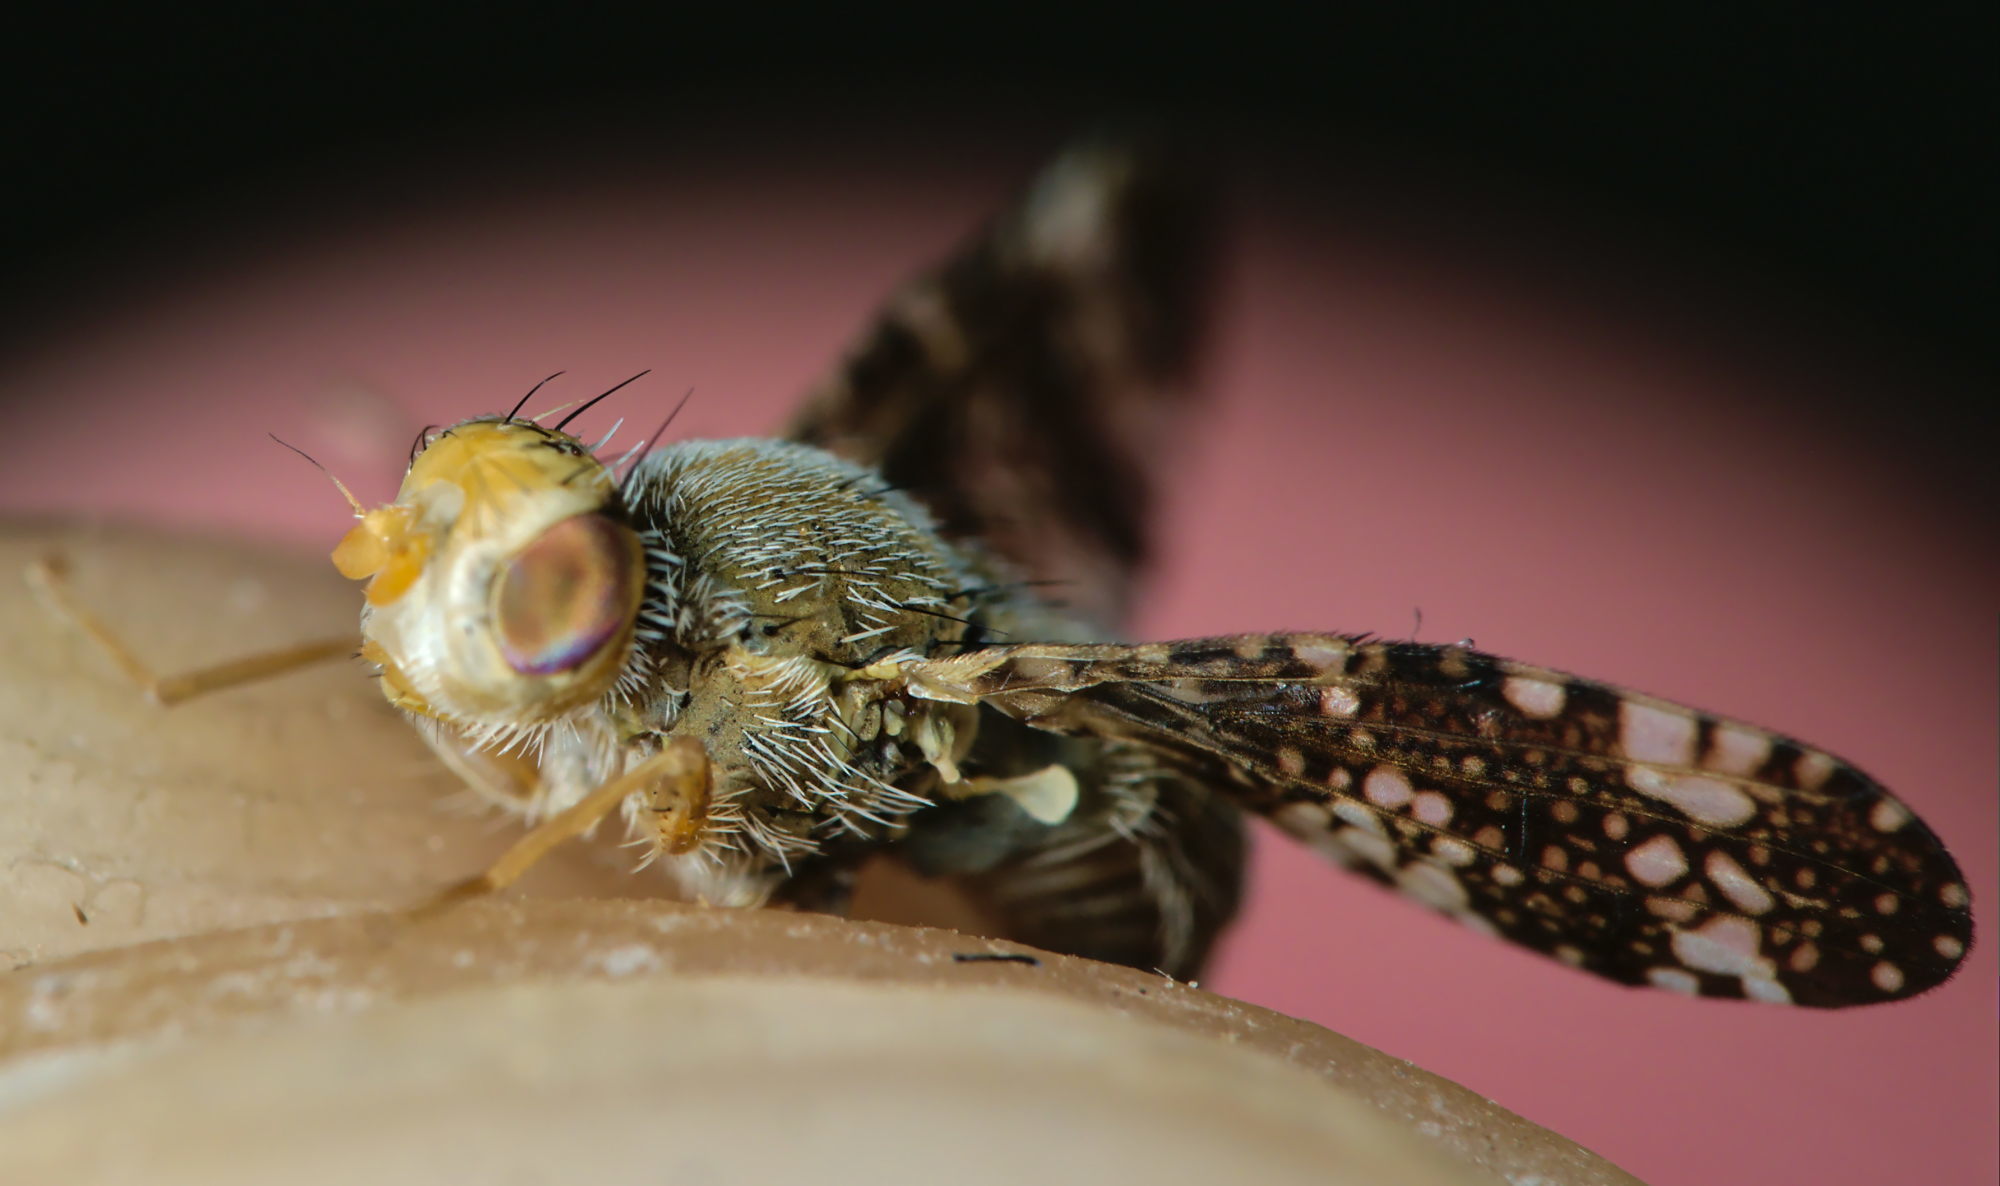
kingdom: Animalia
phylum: Arthropoda
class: Insecta
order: Diptera
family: Tephritidae
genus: Oxyna
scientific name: Oxyna parietina
